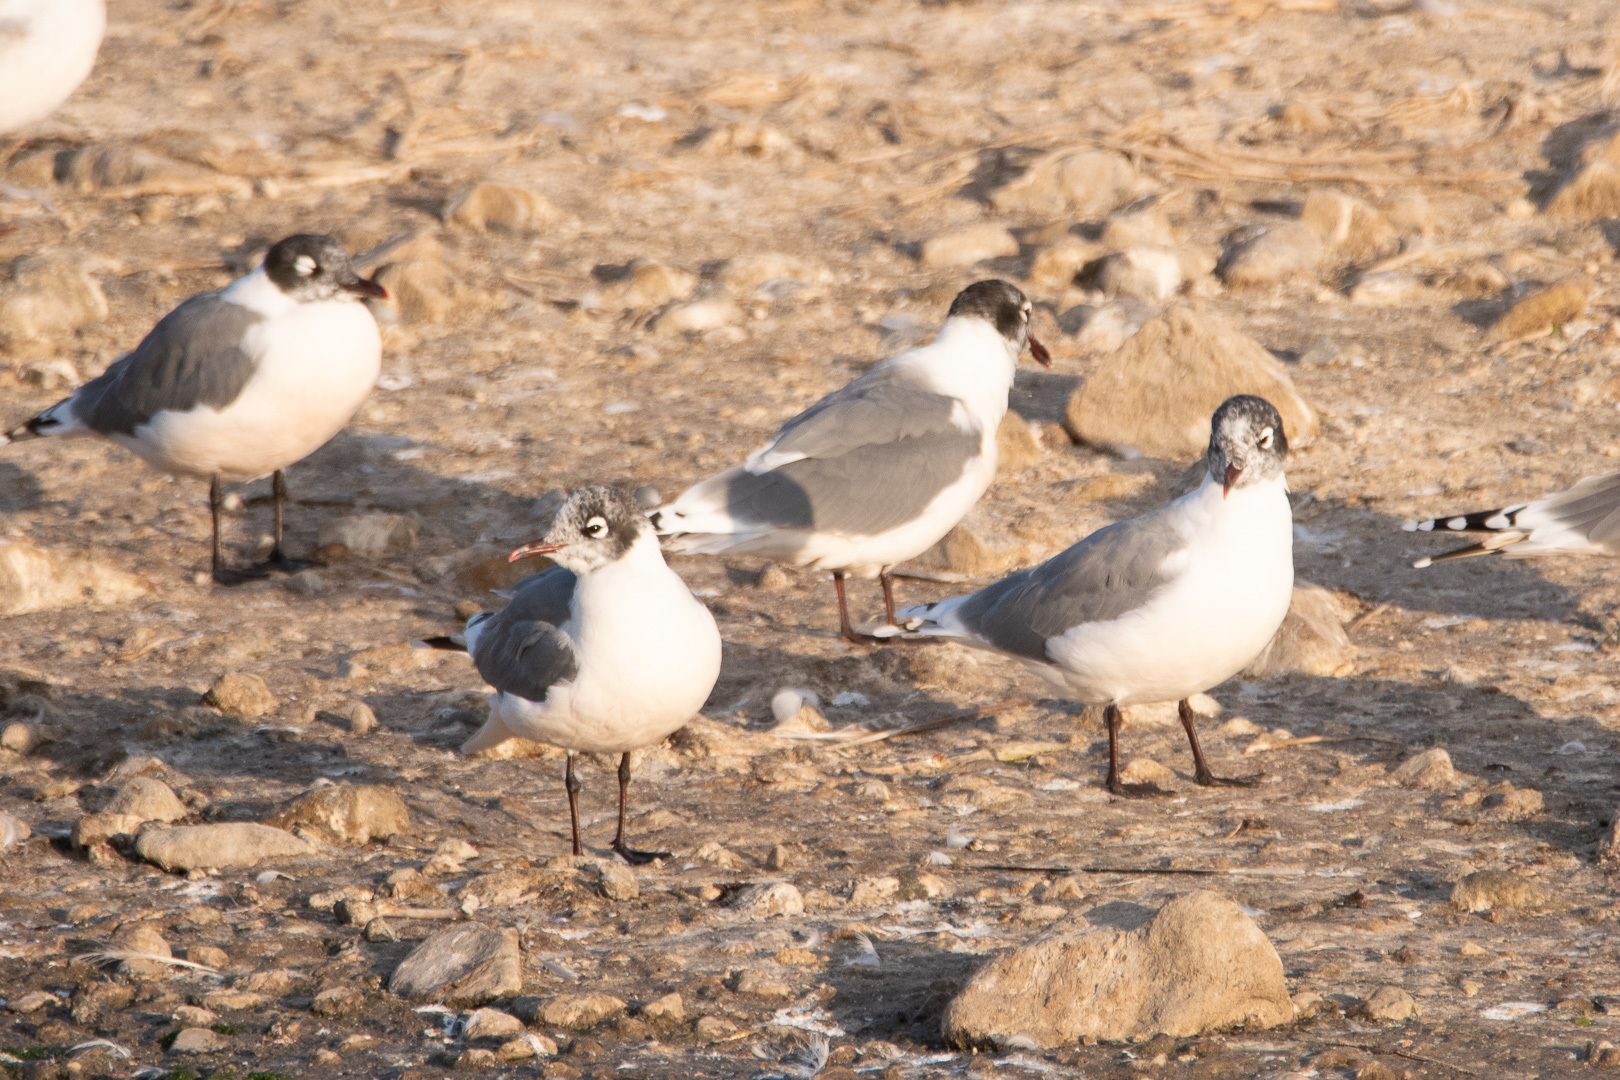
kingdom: Animalia
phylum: Chordata
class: Aves
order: Charadriiformes
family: Laridae
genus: Leucophaeus
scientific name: Leucophaeus pipixcan
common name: Franklin's gull
